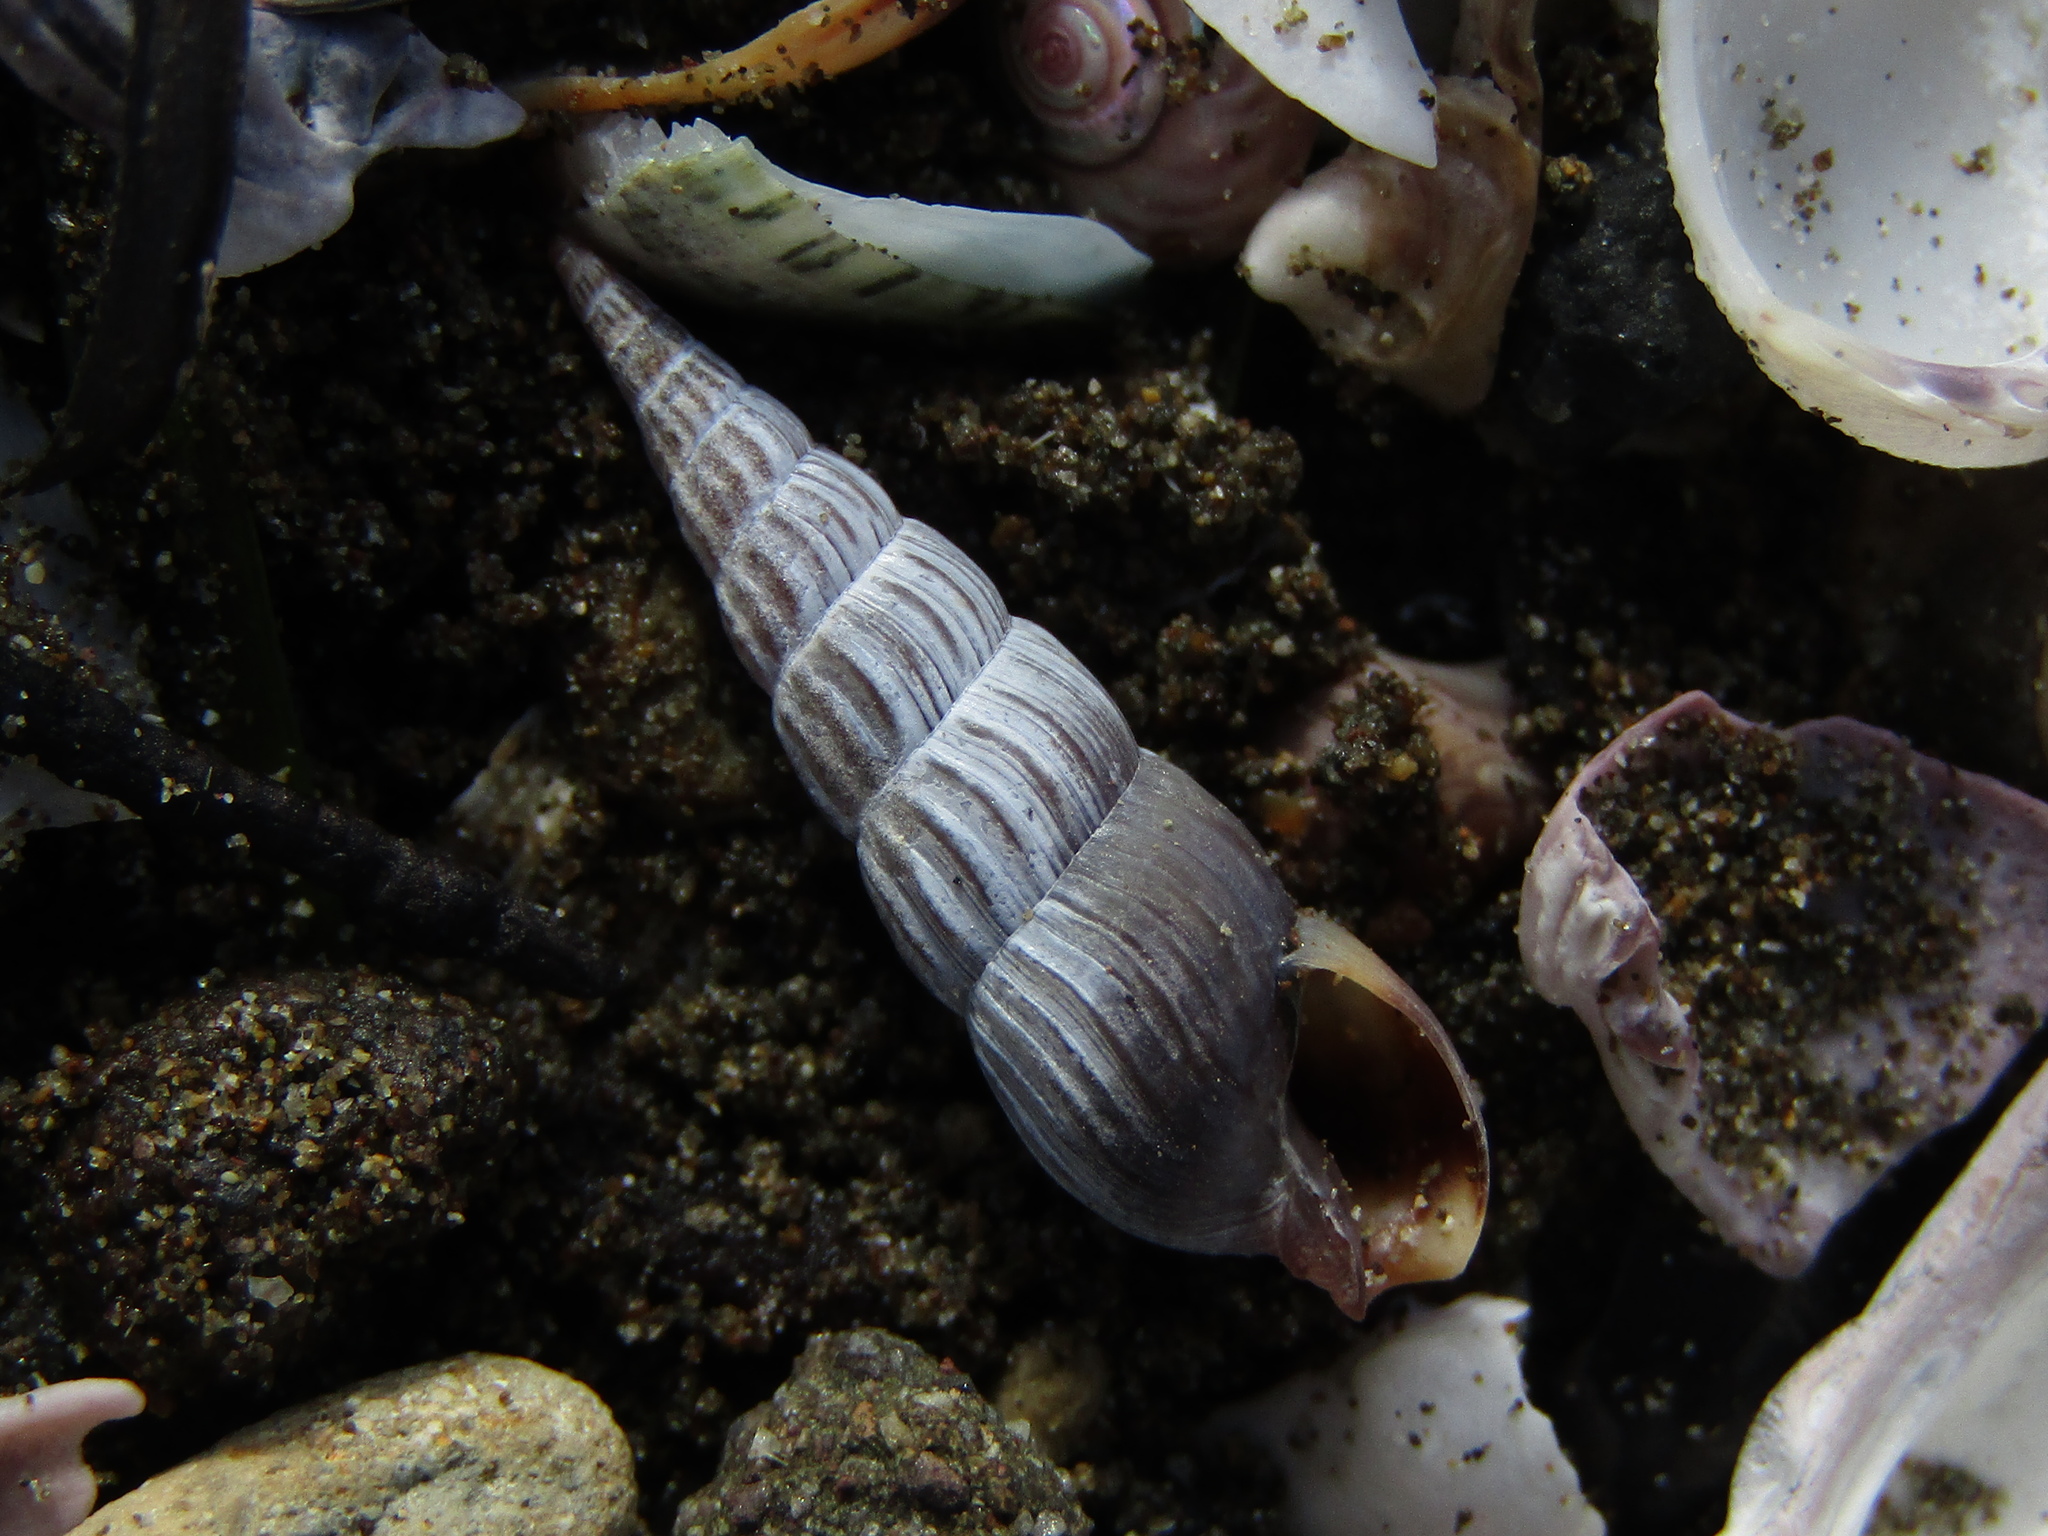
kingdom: Animalia
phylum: Mollusca
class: Gastropoda
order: Neogastropoda
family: Terebridae
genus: Duplicaria
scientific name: Duplicaria tristis
